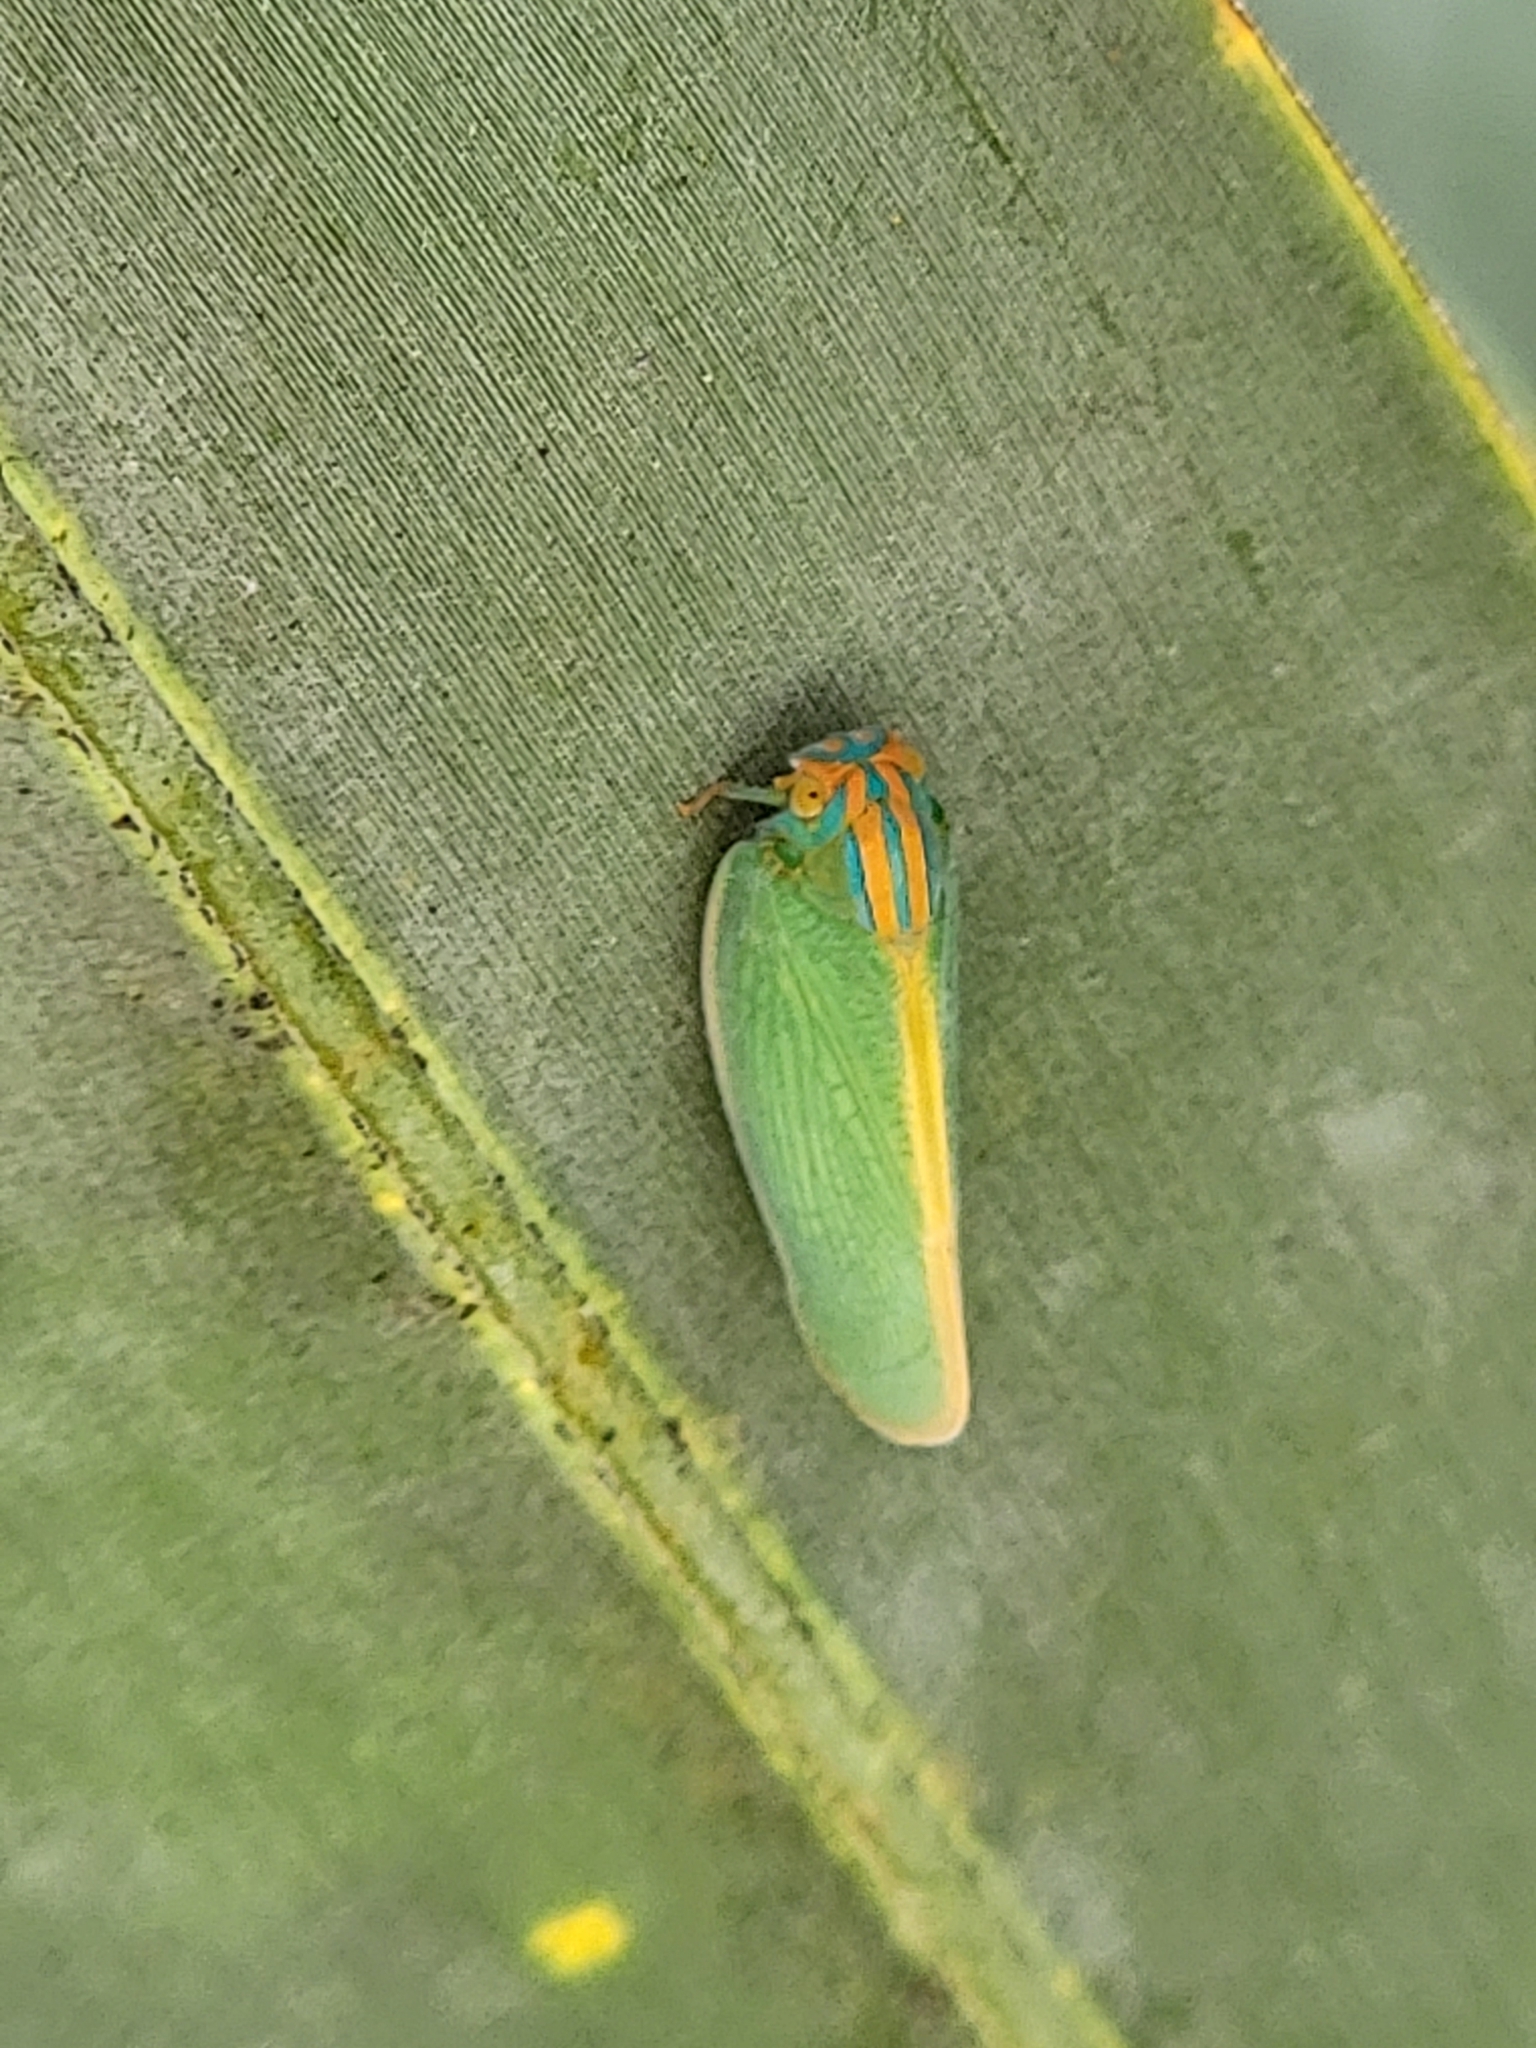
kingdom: Animalia
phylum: Arthropoda
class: Insecta
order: Hemiptera
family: Flatidae
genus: Ormenaria
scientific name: Ormenaria rufifascia
